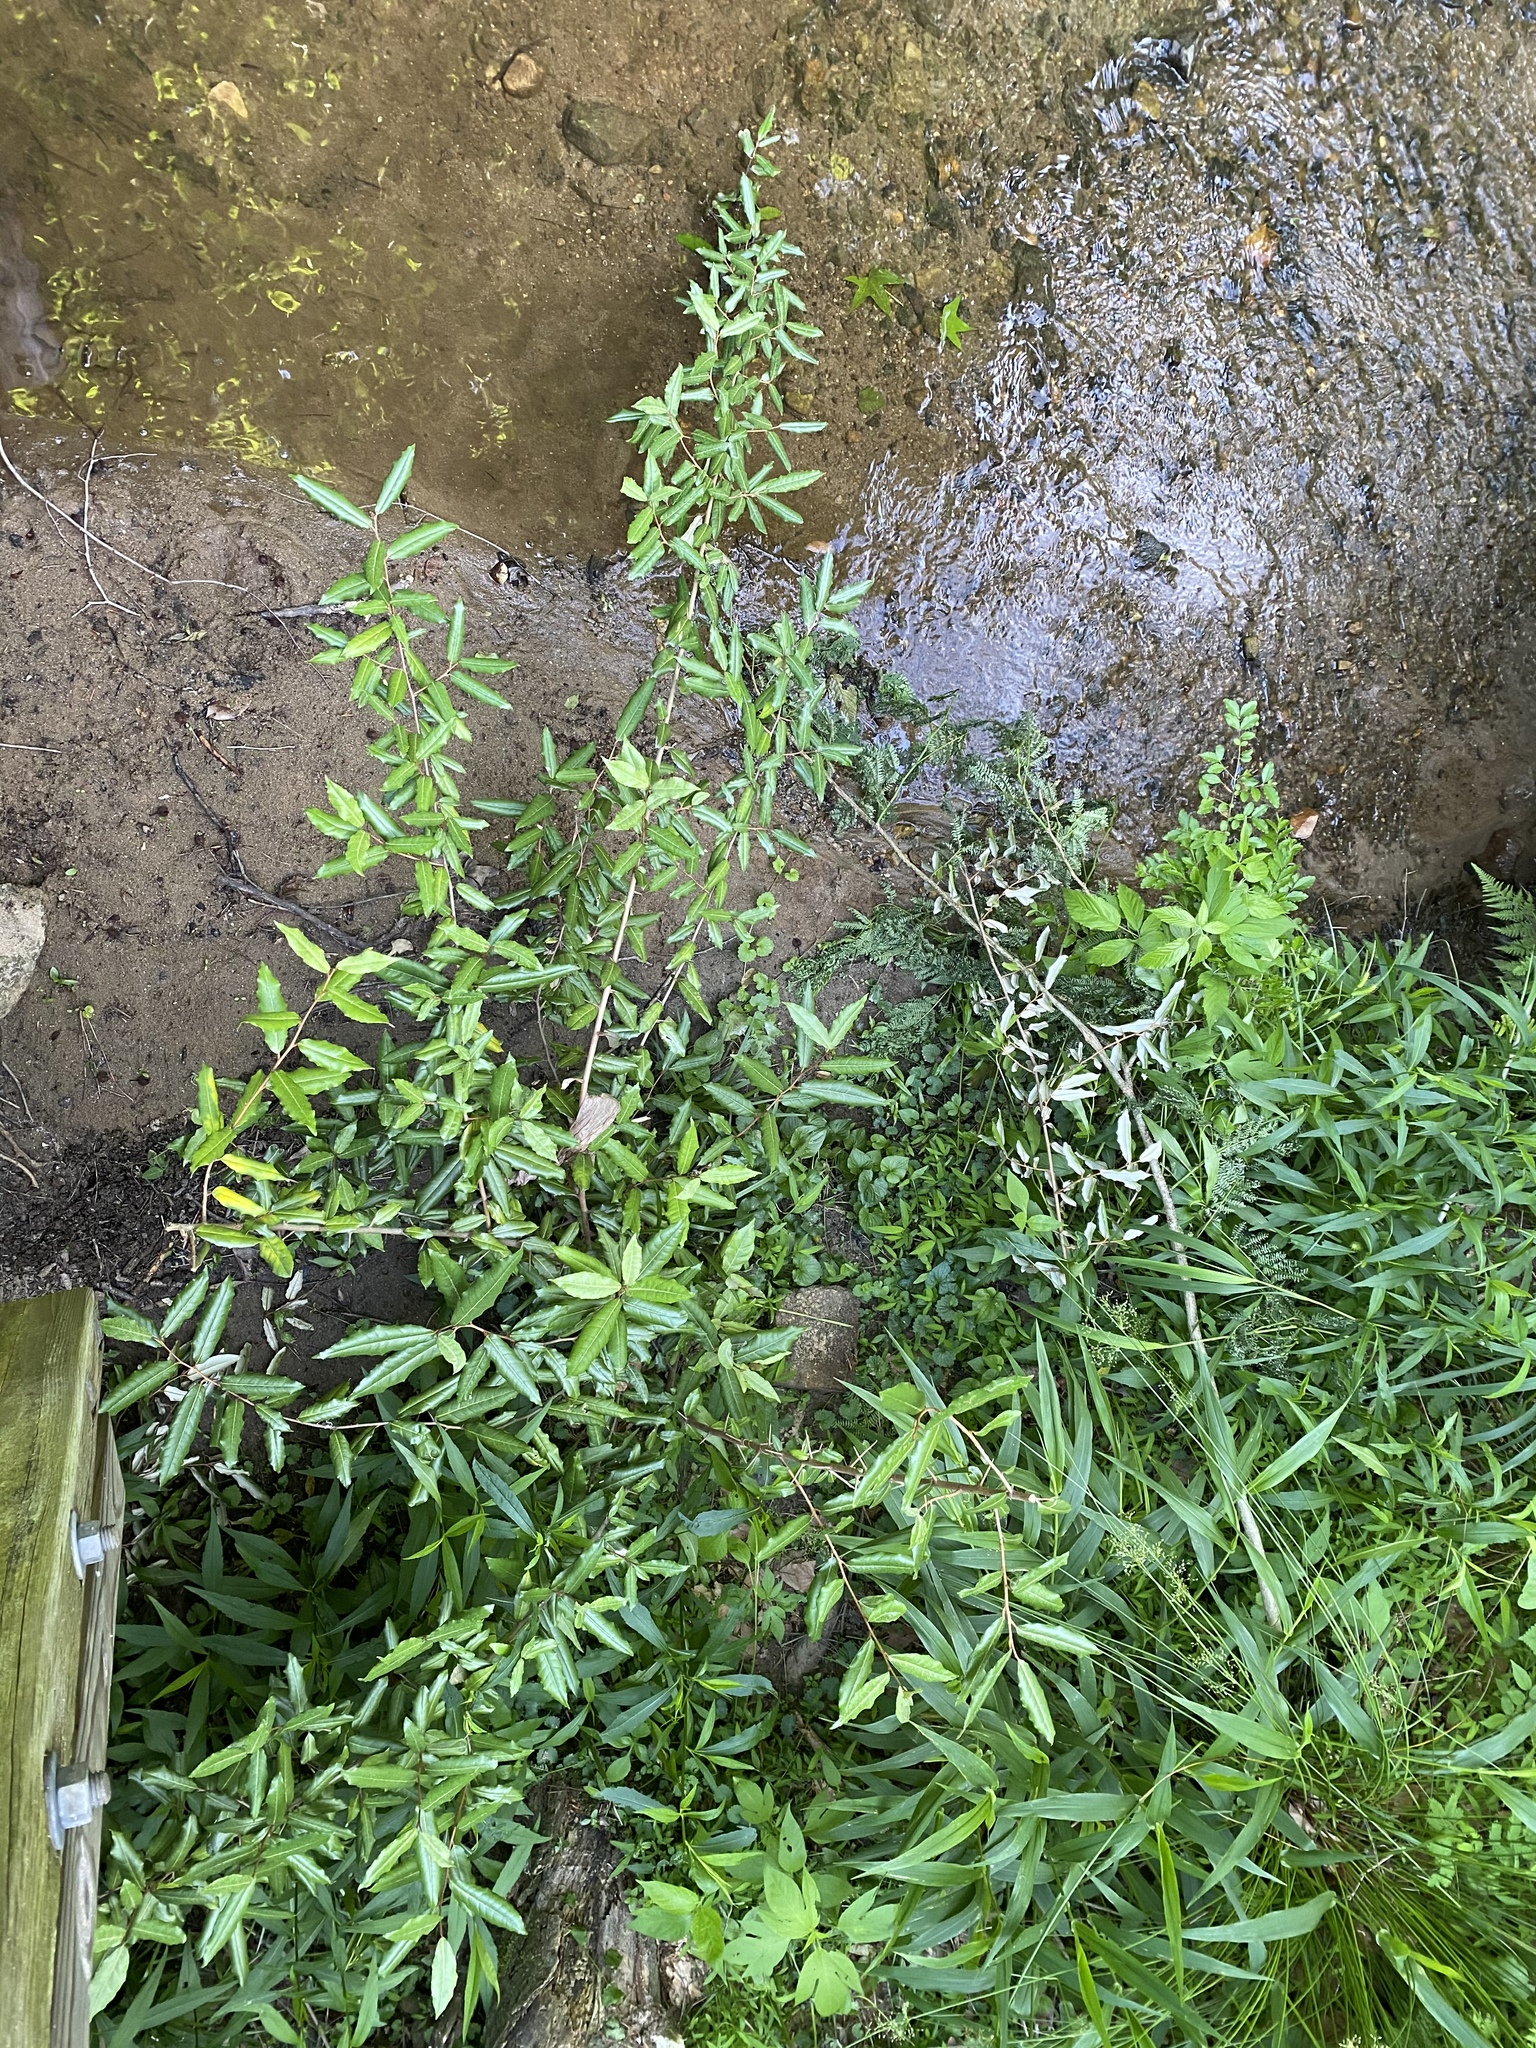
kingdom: Plantae
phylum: Tracheophyta
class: Magnoliopsida
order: Rosales
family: Elaeagnaceae
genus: Elaeagnus
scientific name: Elaeagnus pungens
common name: Spiny oleaster
